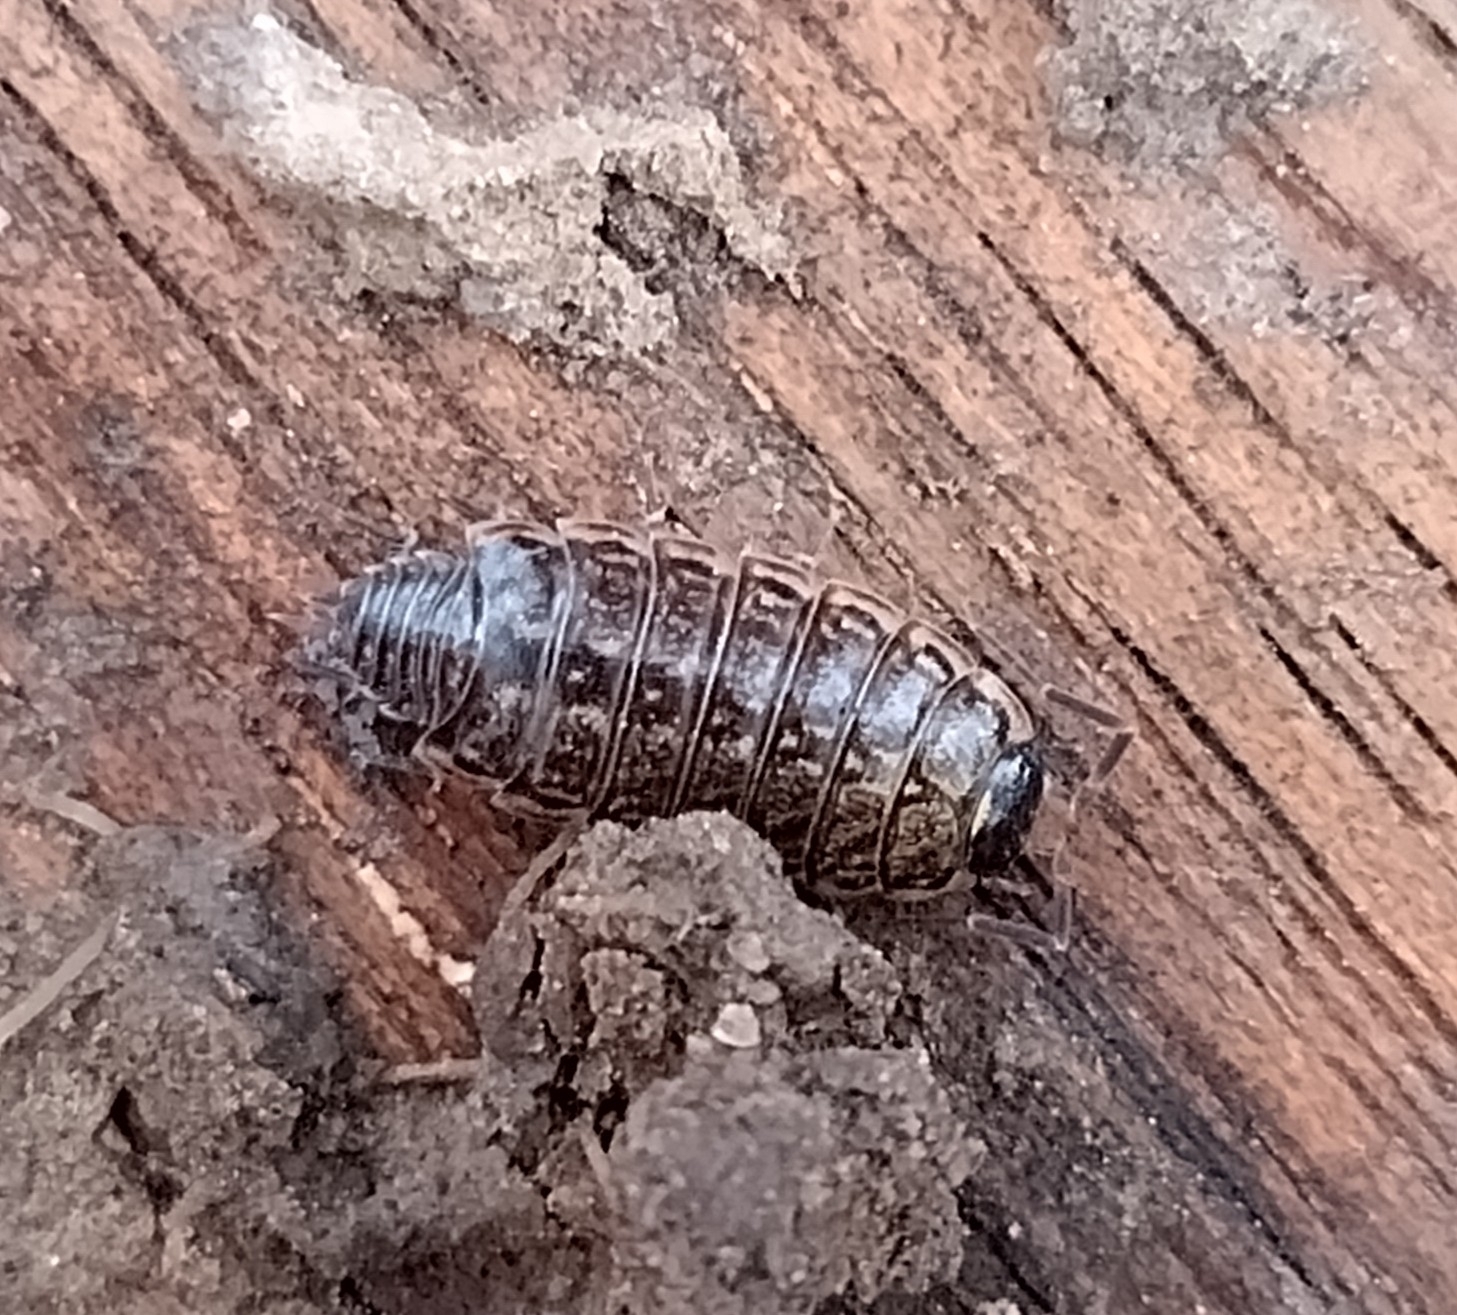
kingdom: Animalia
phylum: Arthropoda
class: Malacostraca
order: Isopoda
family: Philosciidae
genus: Philoscia
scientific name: Philoscia muscorum
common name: Common striped woodlouse
